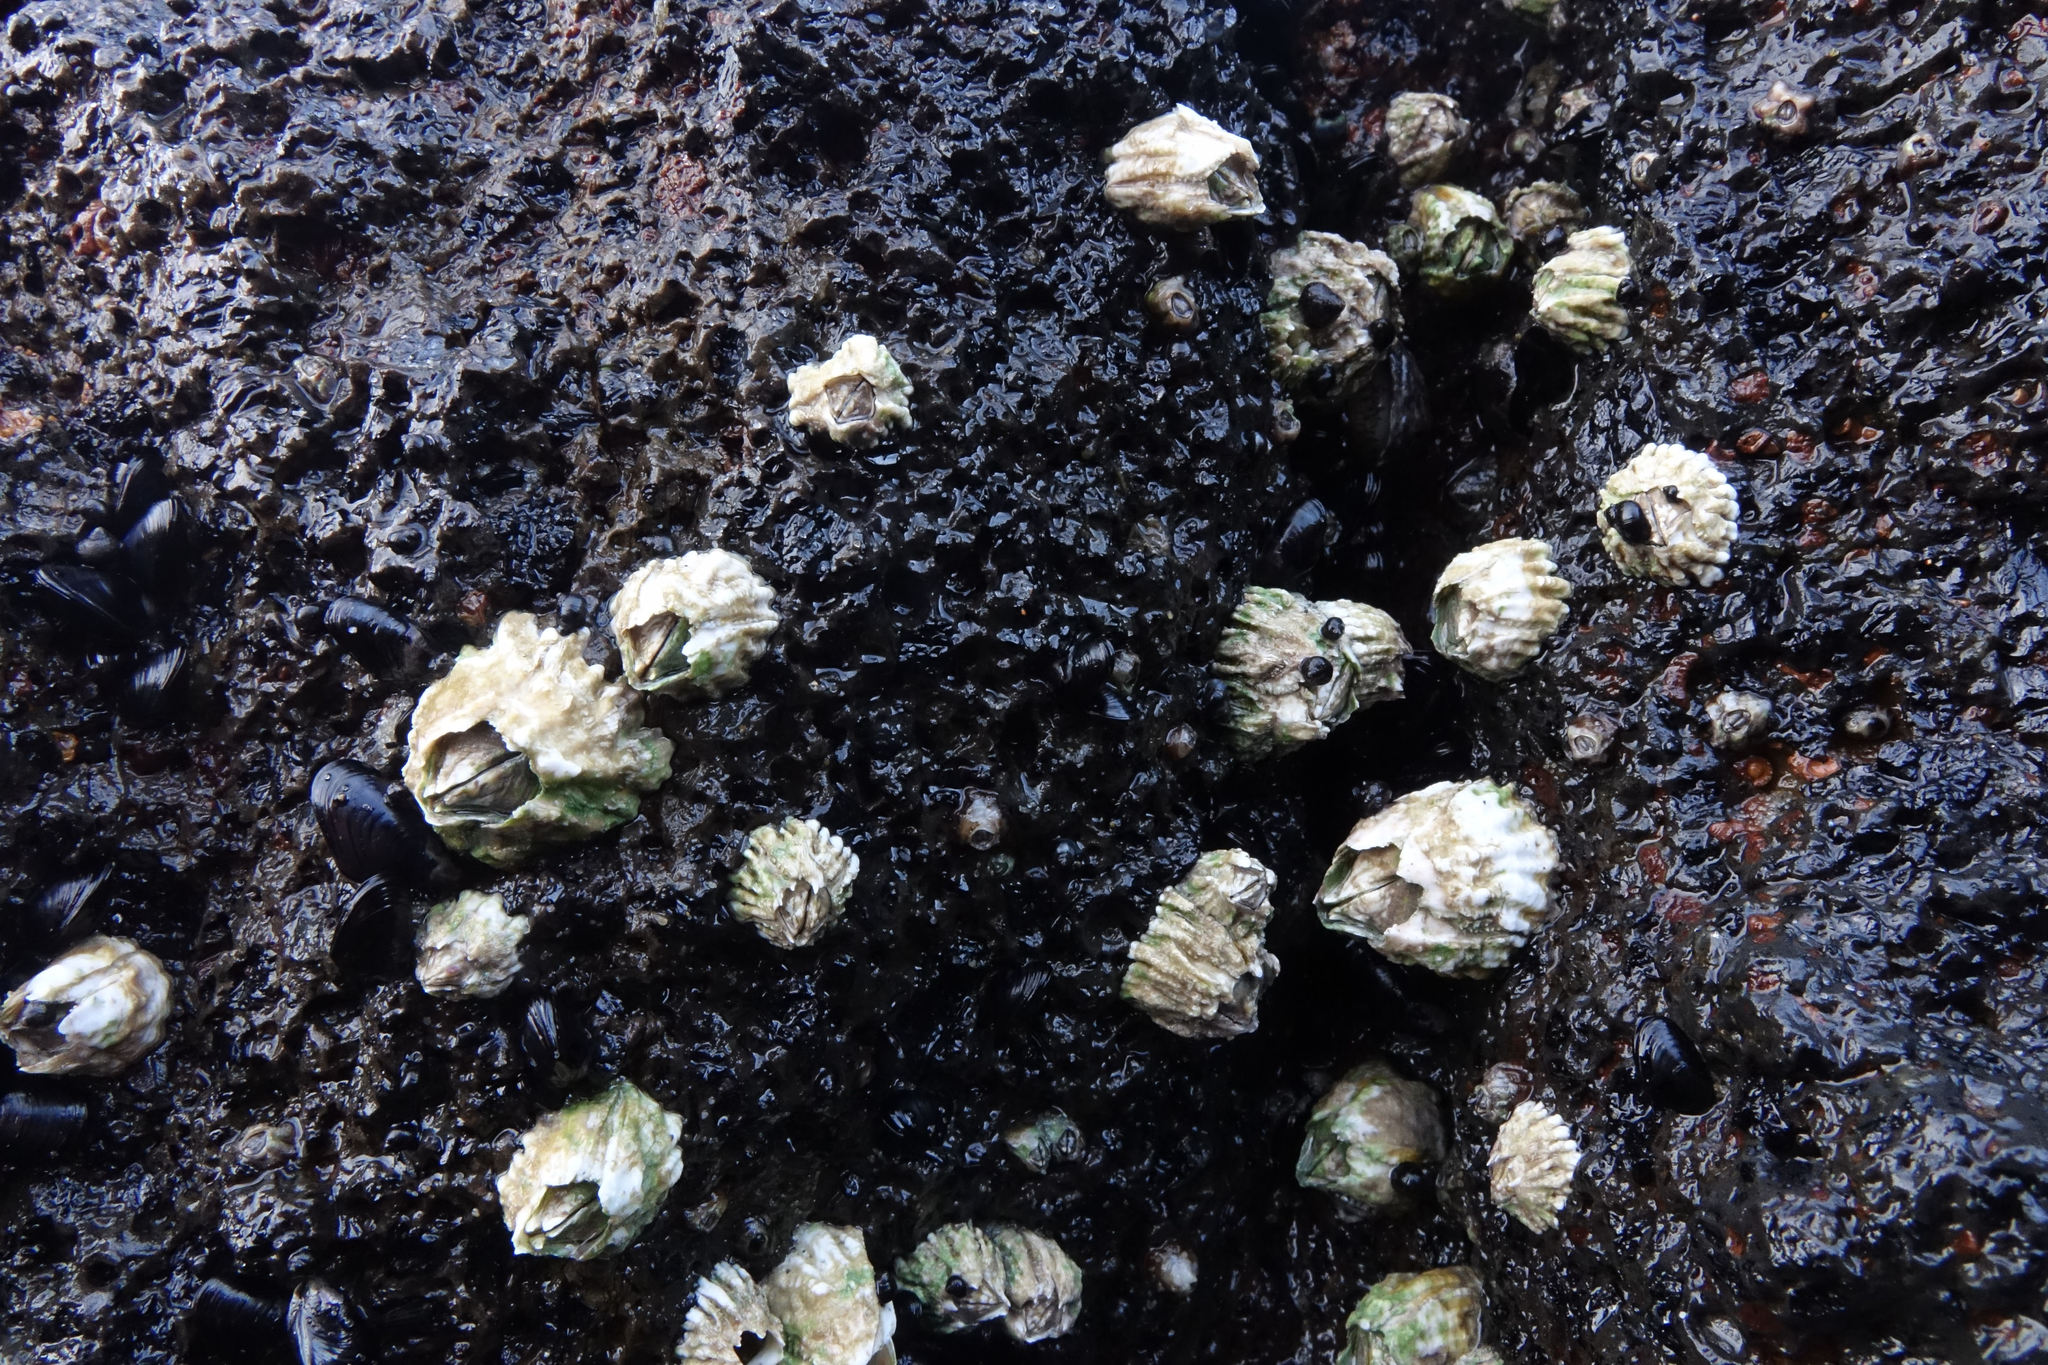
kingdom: Animalia
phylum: Arthropoda
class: Maxillopoda
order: Sessilia
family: Tetraclitidae
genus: Epopella
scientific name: Epopella plicata
